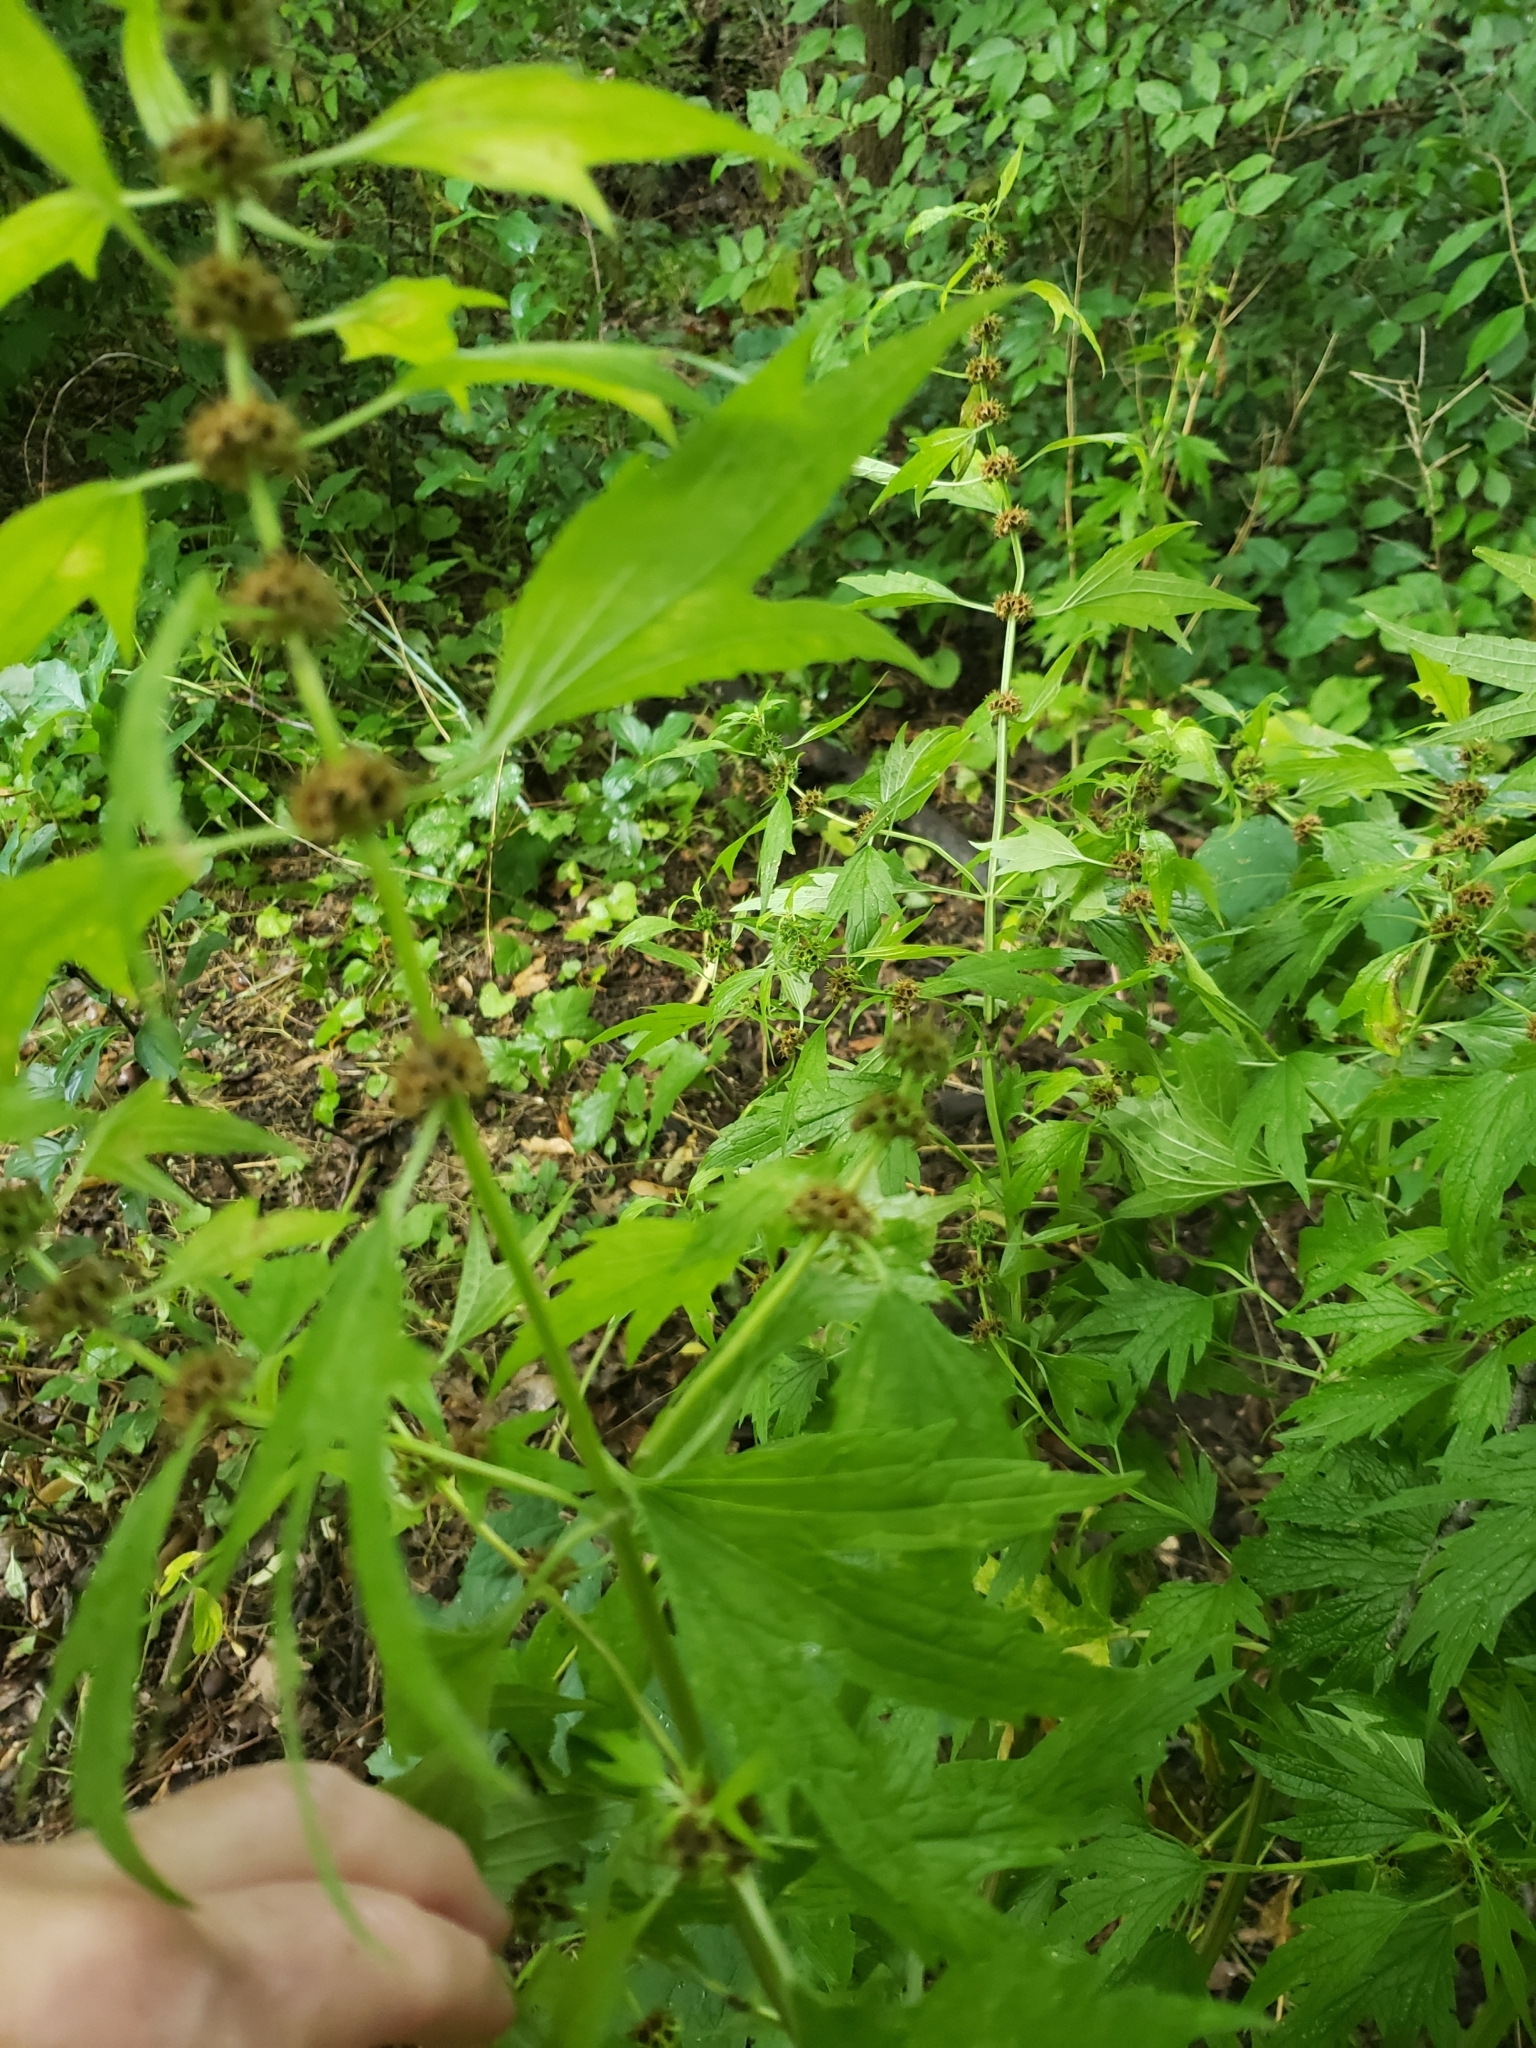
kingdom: Plantae
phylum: Tracheophyta
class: Magnoliopsida
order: Lamiales
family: Lamiaceae
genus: Leonurus
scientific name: Leonurus cardiaca
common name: Motherwort
